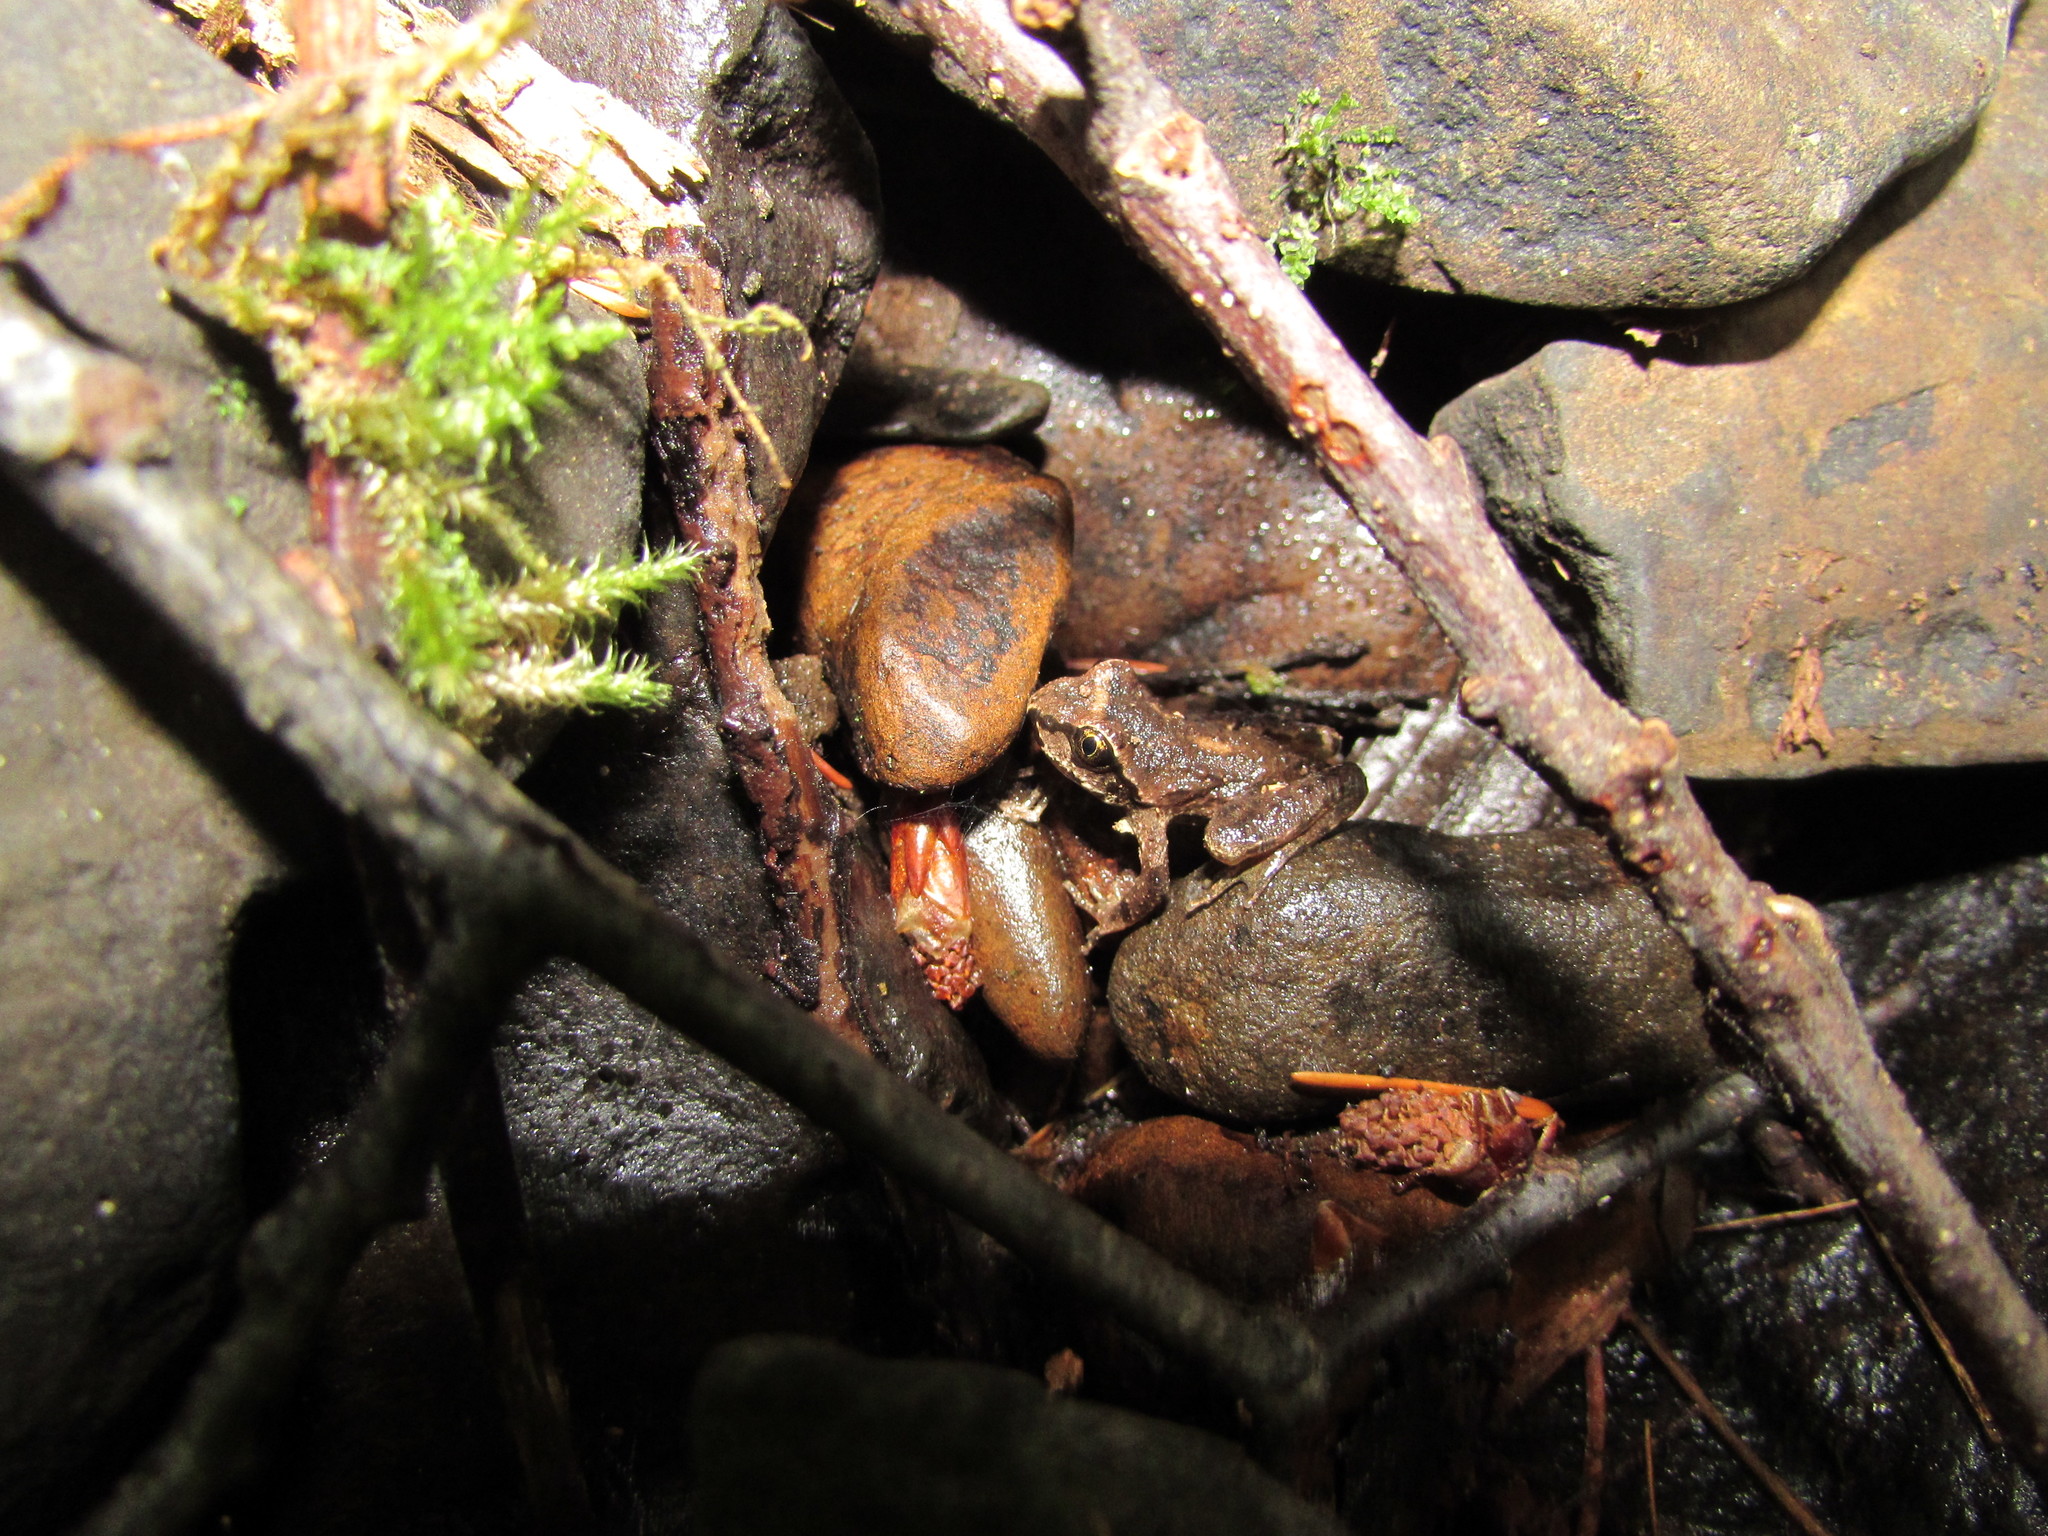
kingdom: Animalia
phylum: Chordata
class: Amphibia
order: Anura
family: Ascaphidae
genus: Ascaphus
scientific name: Ascaphus truei
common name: Tailed frog
